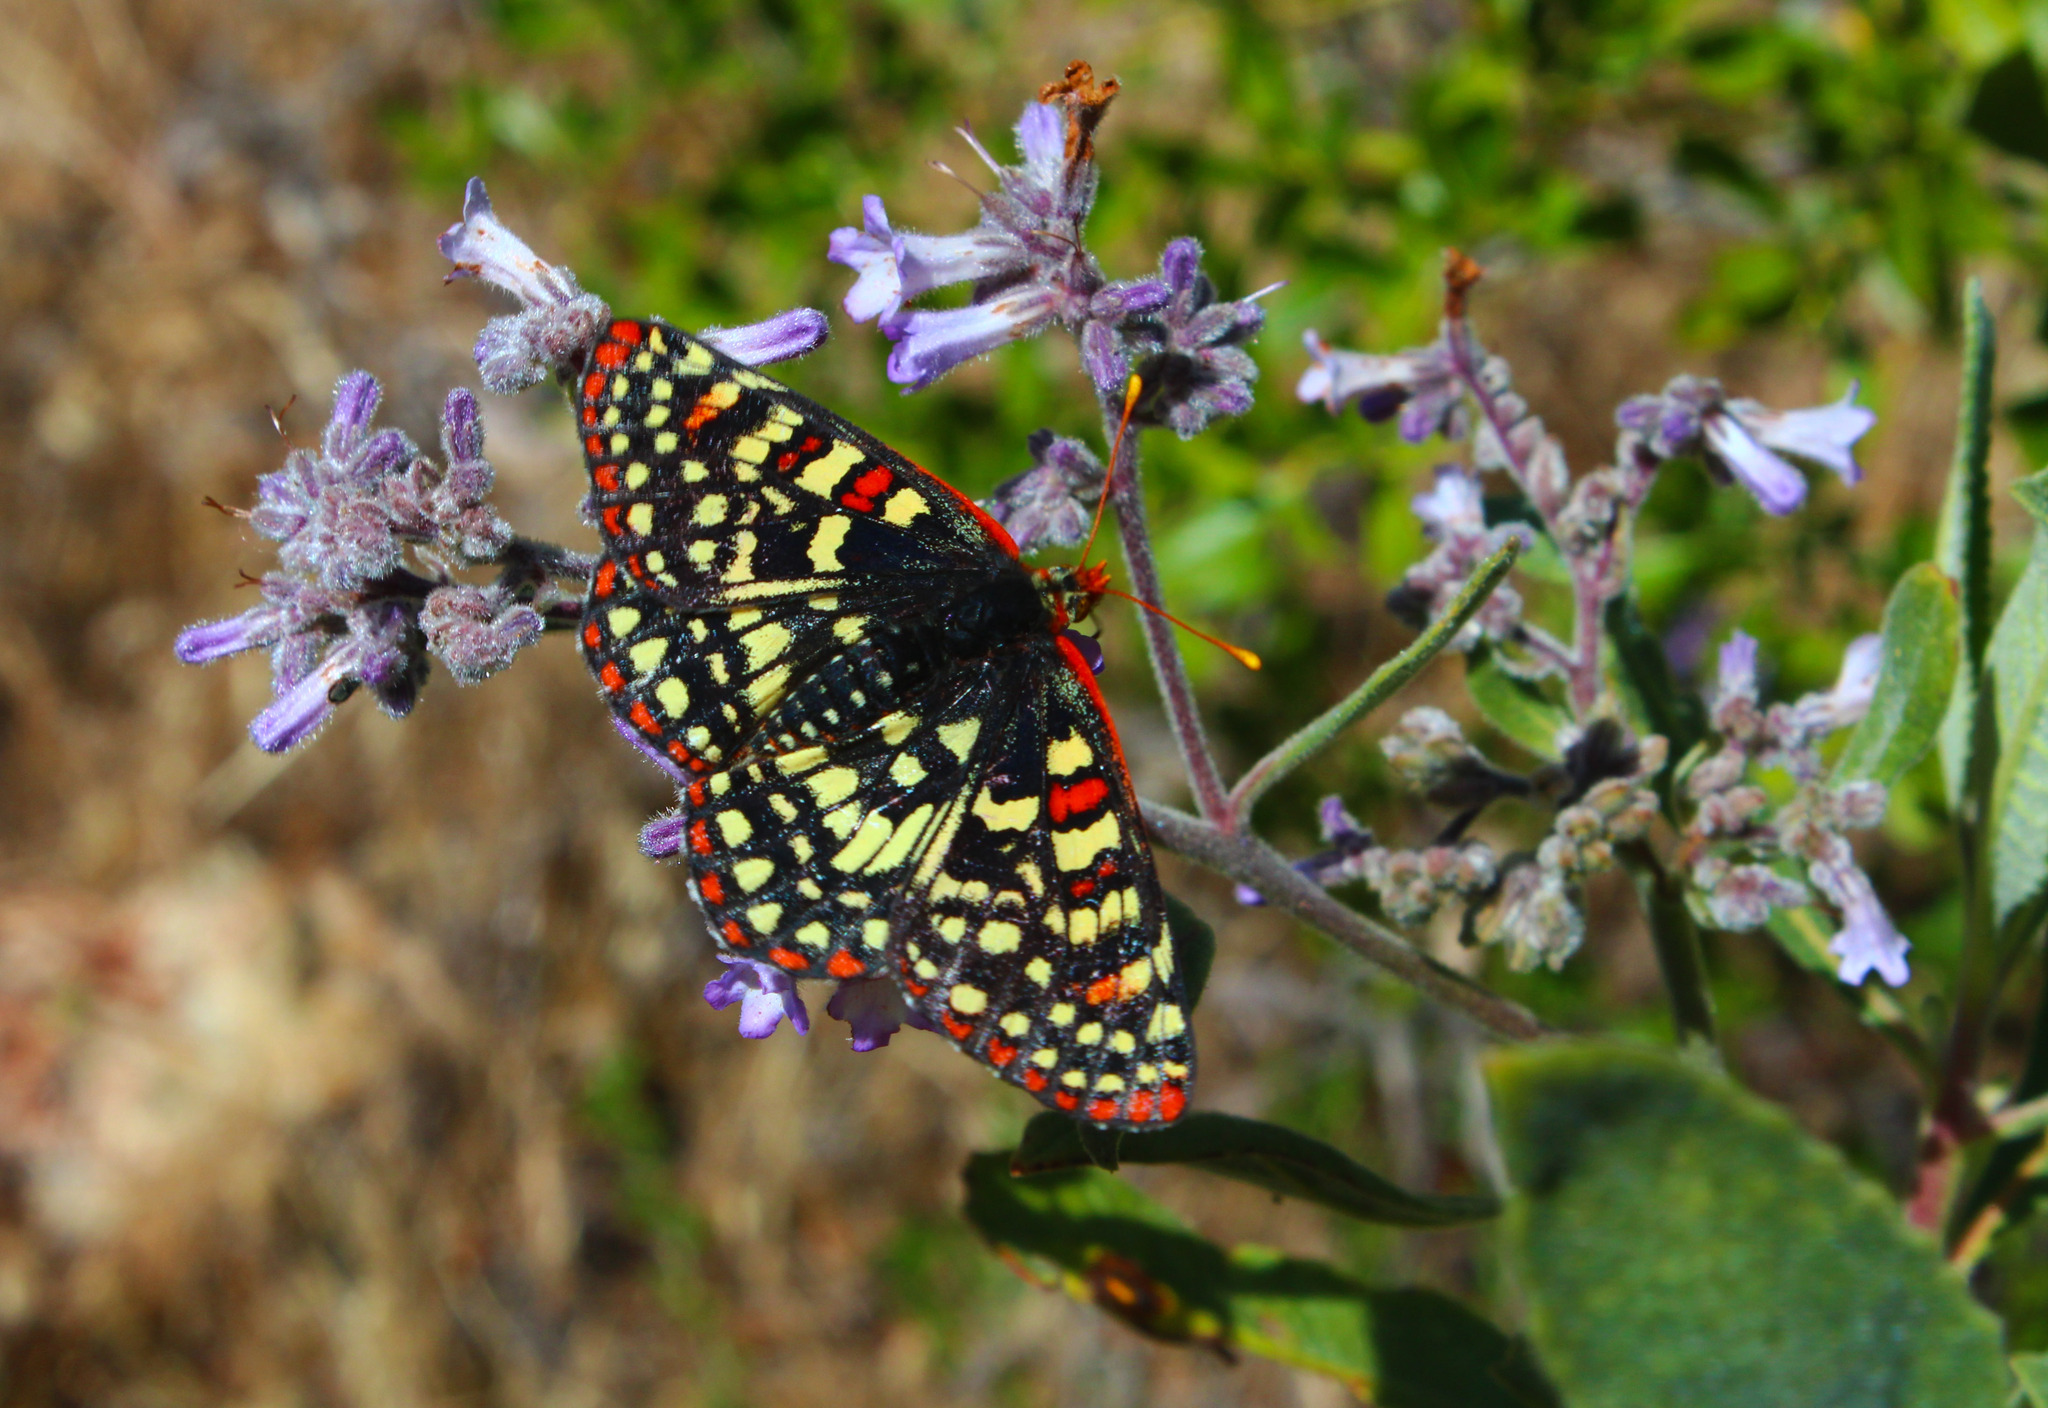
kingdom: Animalia
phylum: Arthropoda
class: Insecta
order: Lepidoptera
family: Nymphalidae
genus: Occidryas
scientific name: Occidryas chalcedona
